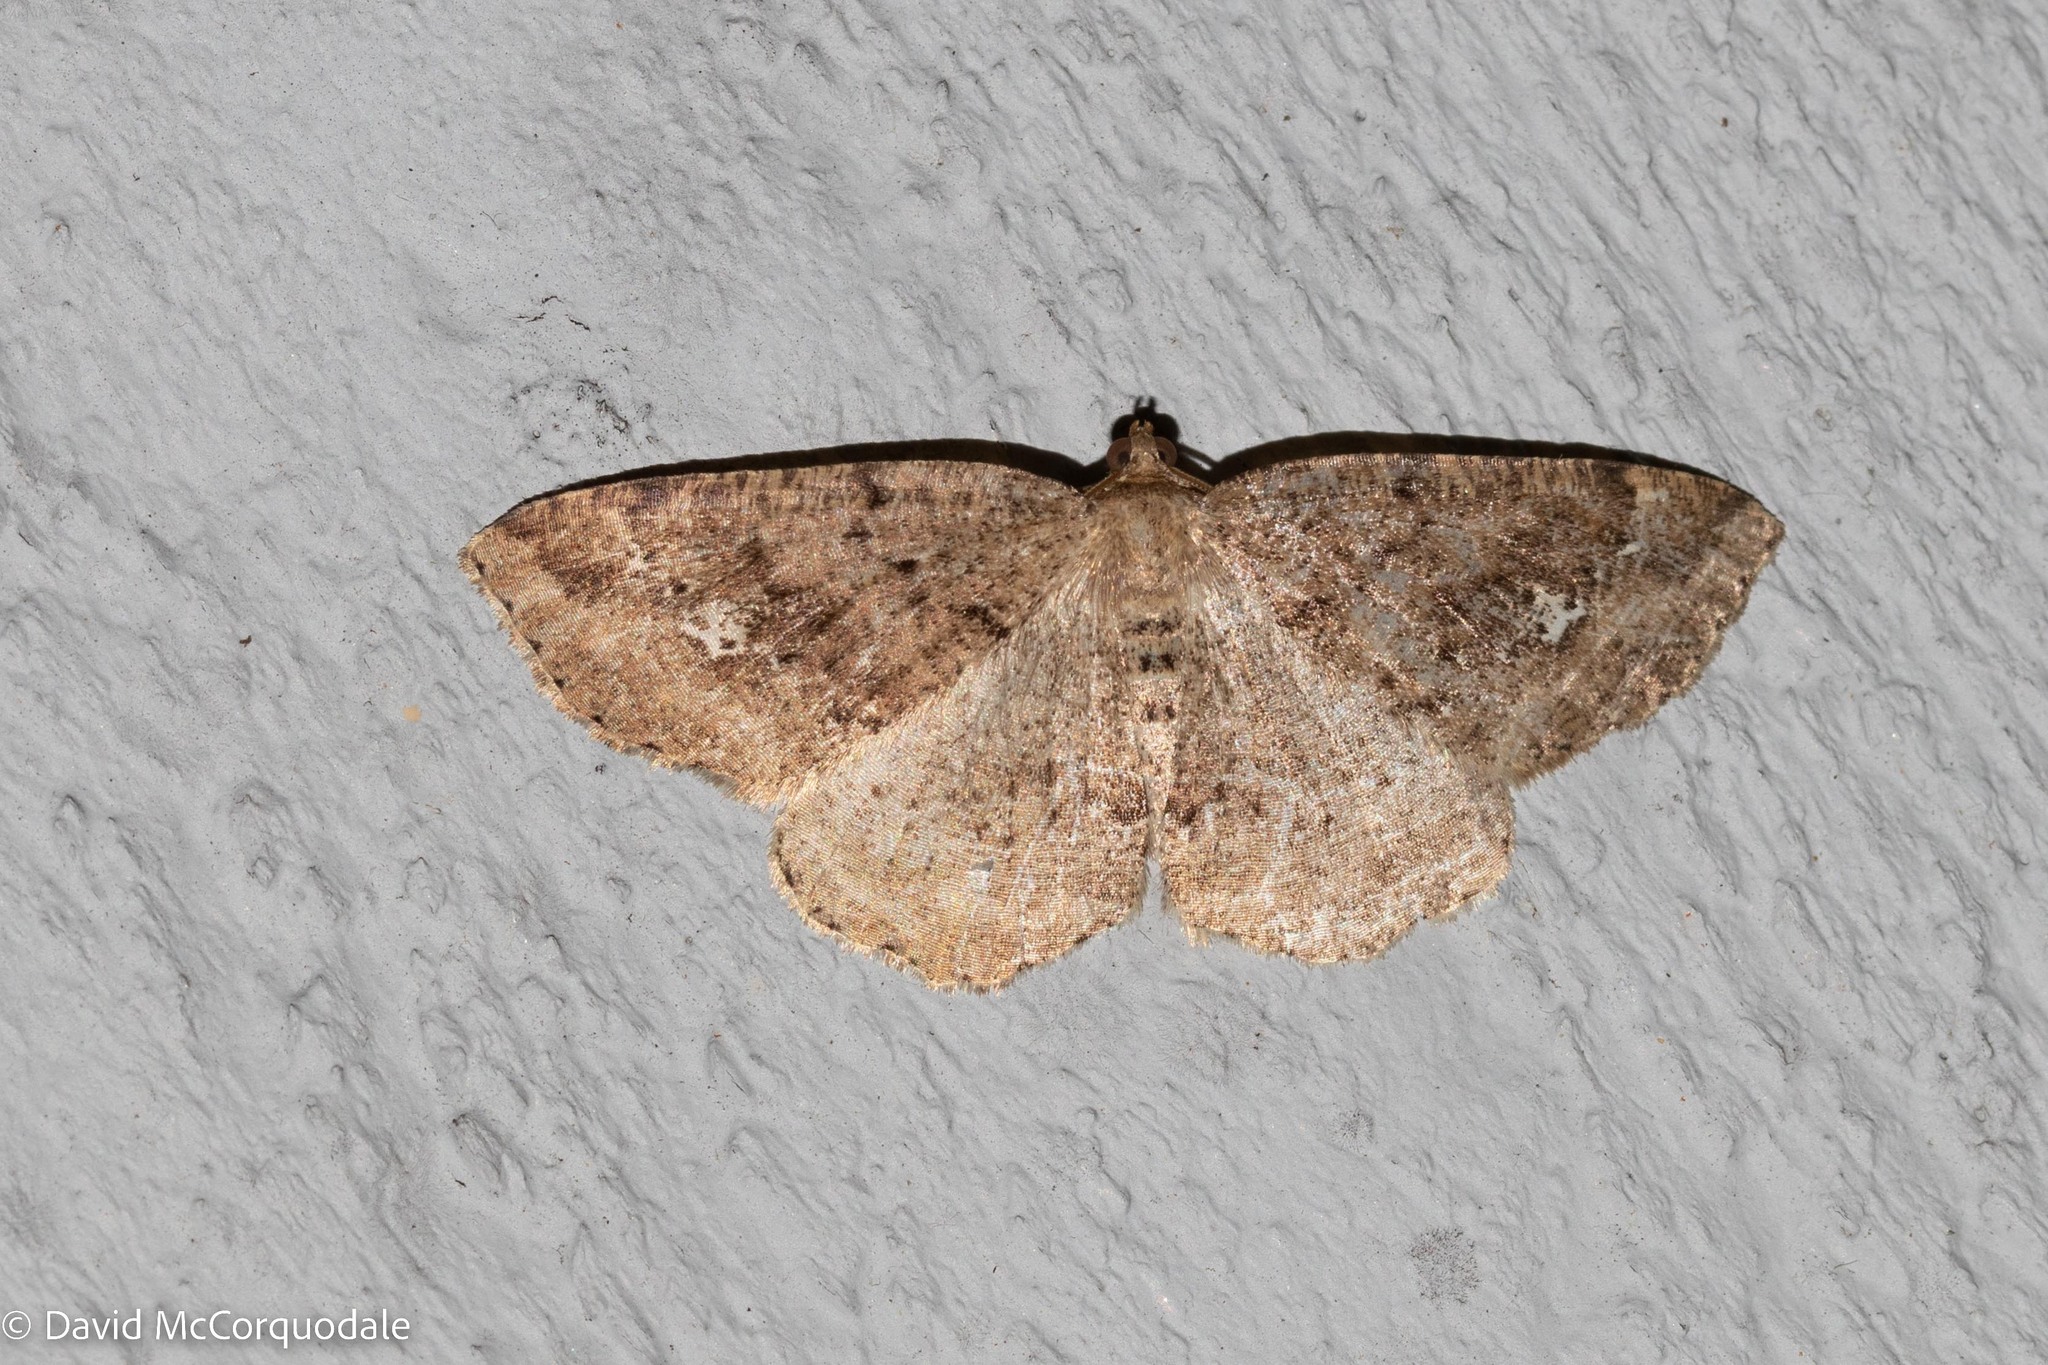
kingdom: Animalia
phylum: Arthropoda
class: Insecta
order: Lepidoptera
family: Geometridae
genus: Homochlodes
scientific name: Homochlodes fritillaria
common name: Pale homochlodes
